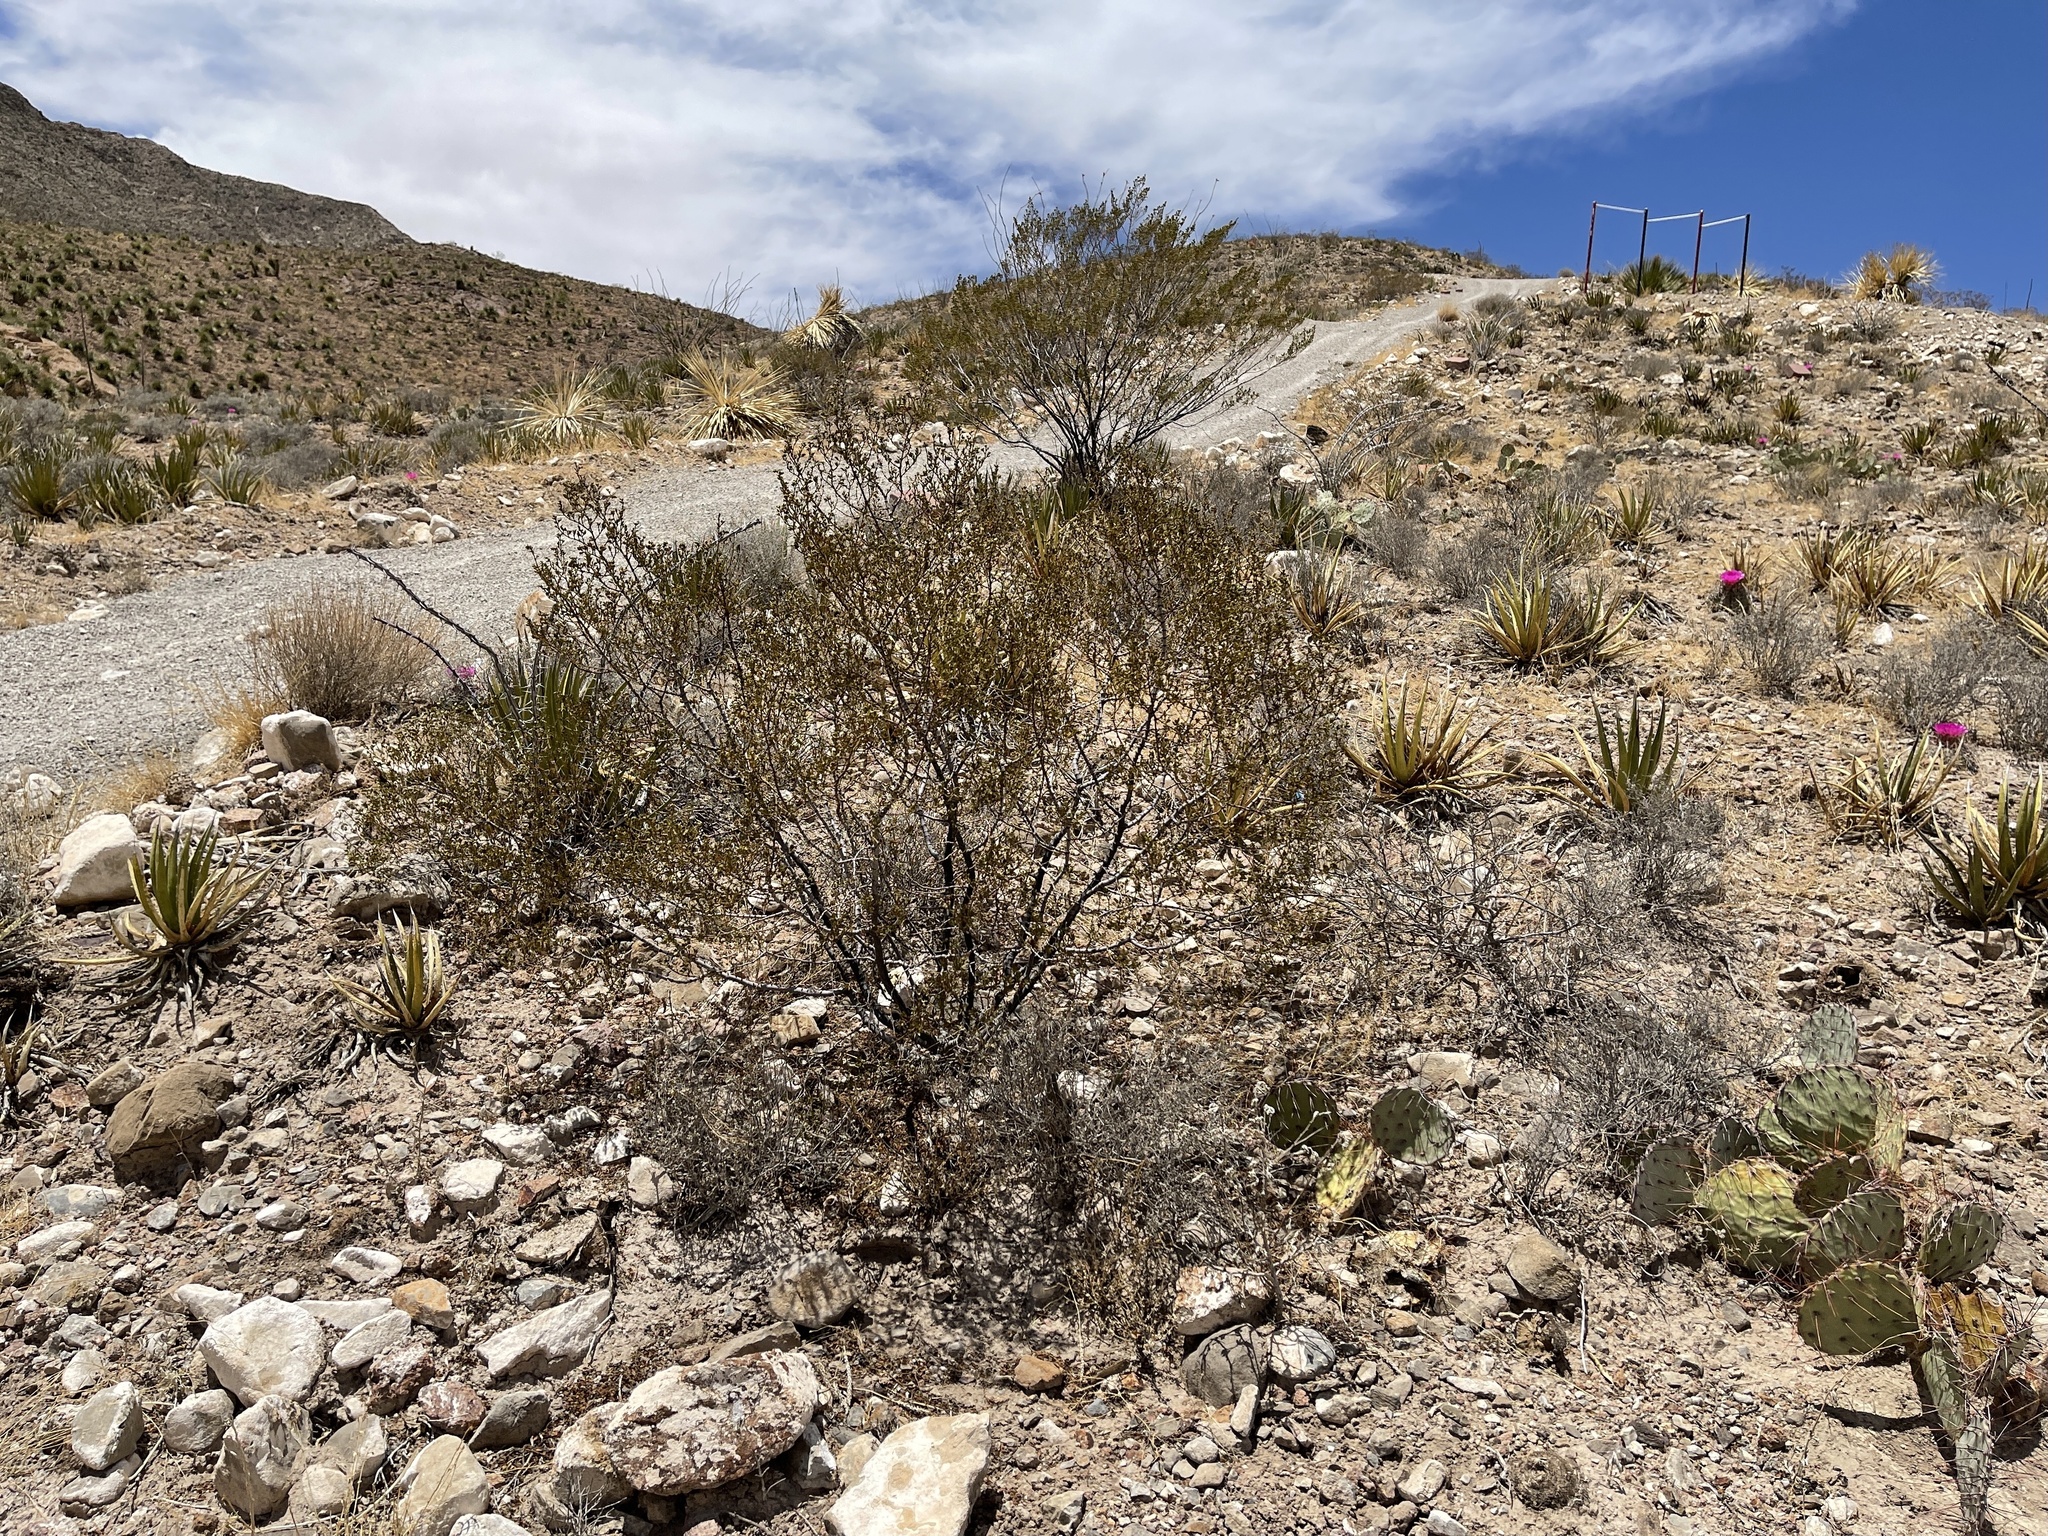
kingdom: Plantae
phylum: Tracheophyta
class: Magnoliopsida
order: Zygophyllales
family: Zygophyllaceae
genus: Larrea
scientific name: Larrea tridentata
